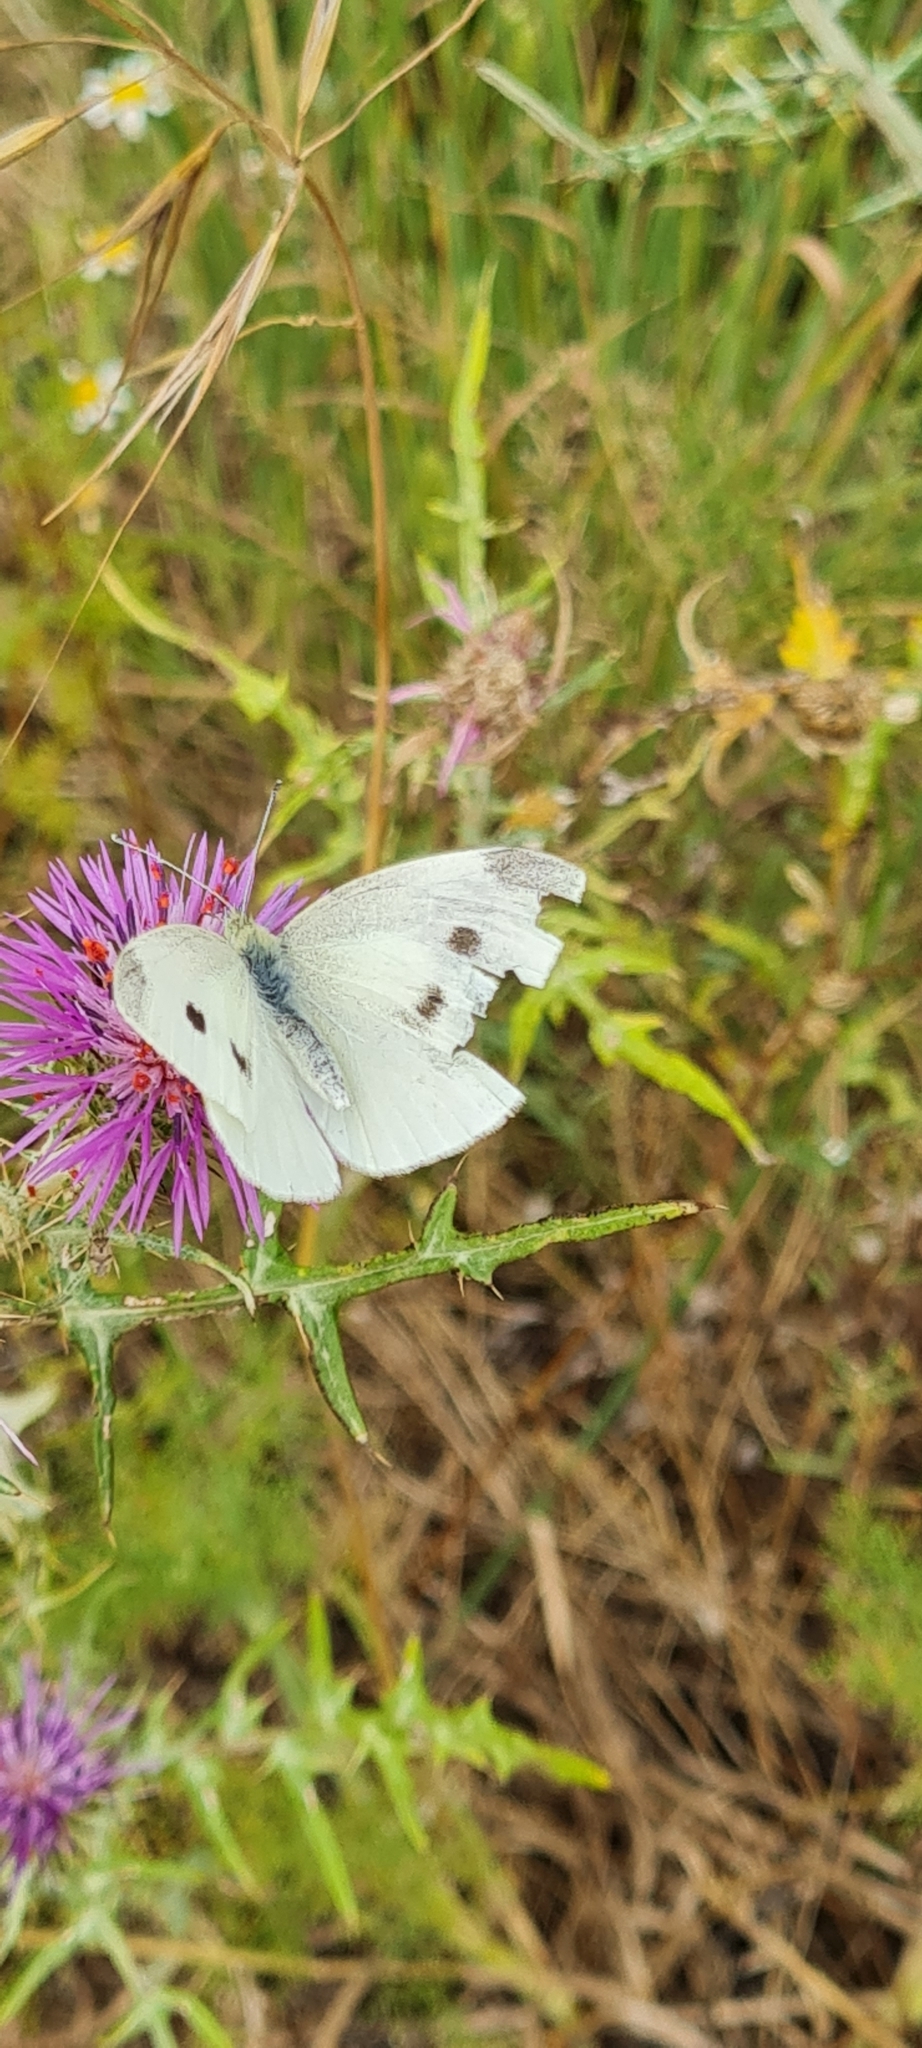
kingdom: Animalia
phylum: Arthropoda
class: Insecta
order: Lepidoptera
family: Pieridae
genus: Pieris
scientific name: Pieris rapae
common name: Small white
